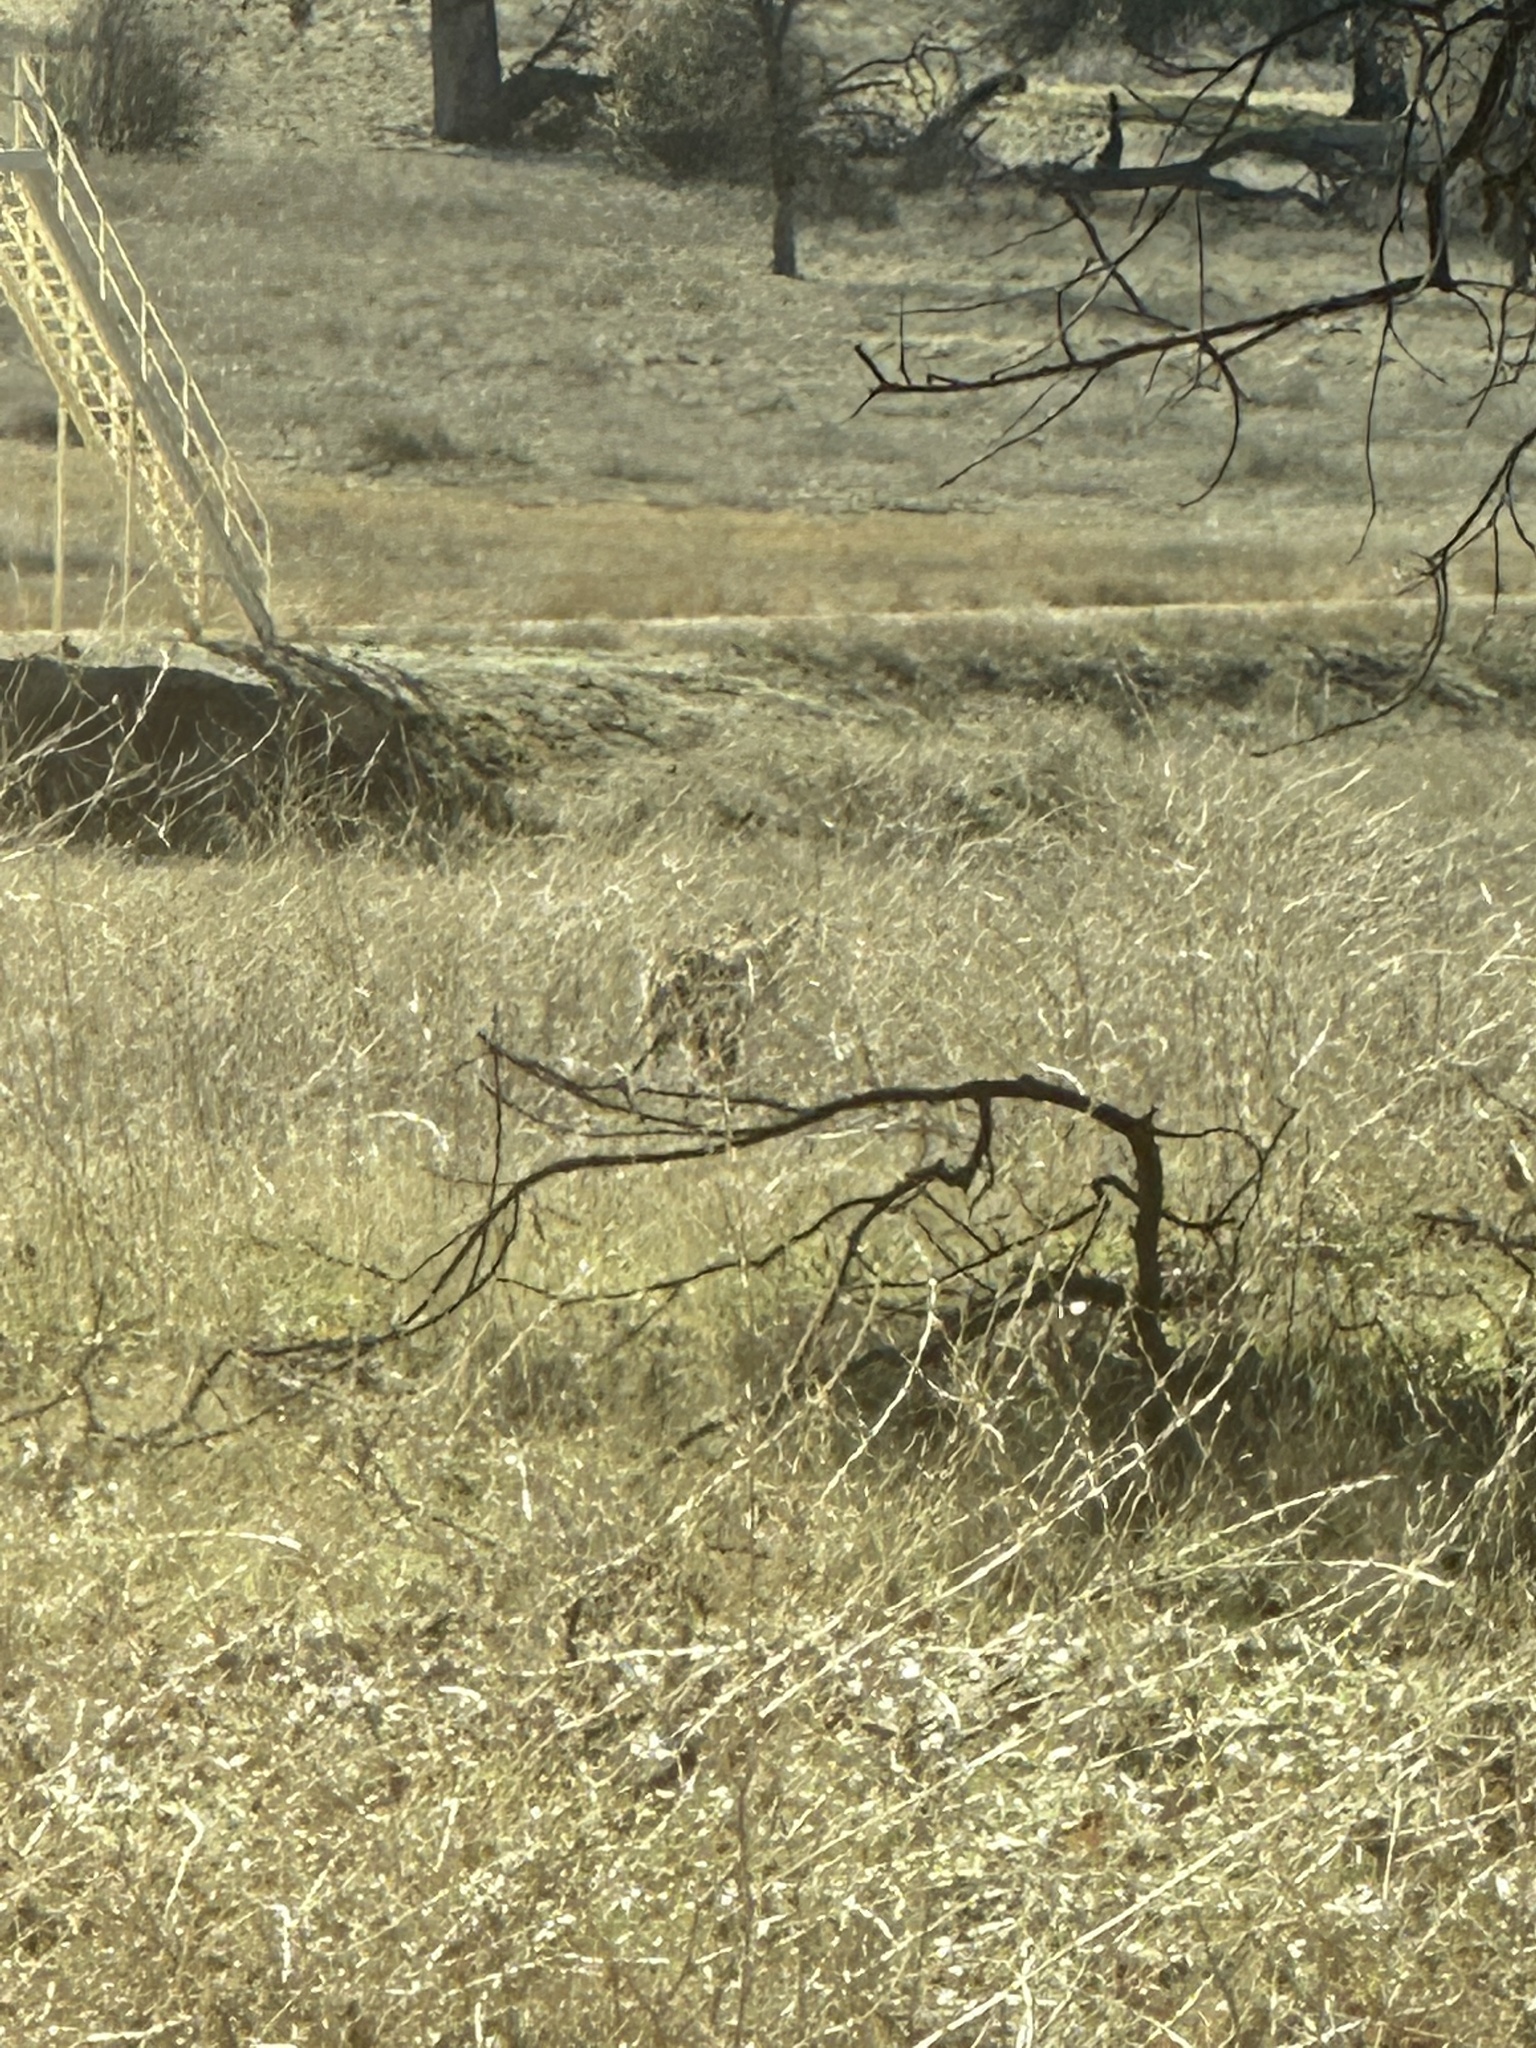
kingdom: Animalia
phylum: Chordata
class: Mammalia
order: Carnivora
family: Canidae
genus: Canis
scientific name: Canis latrans
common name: Coyote
